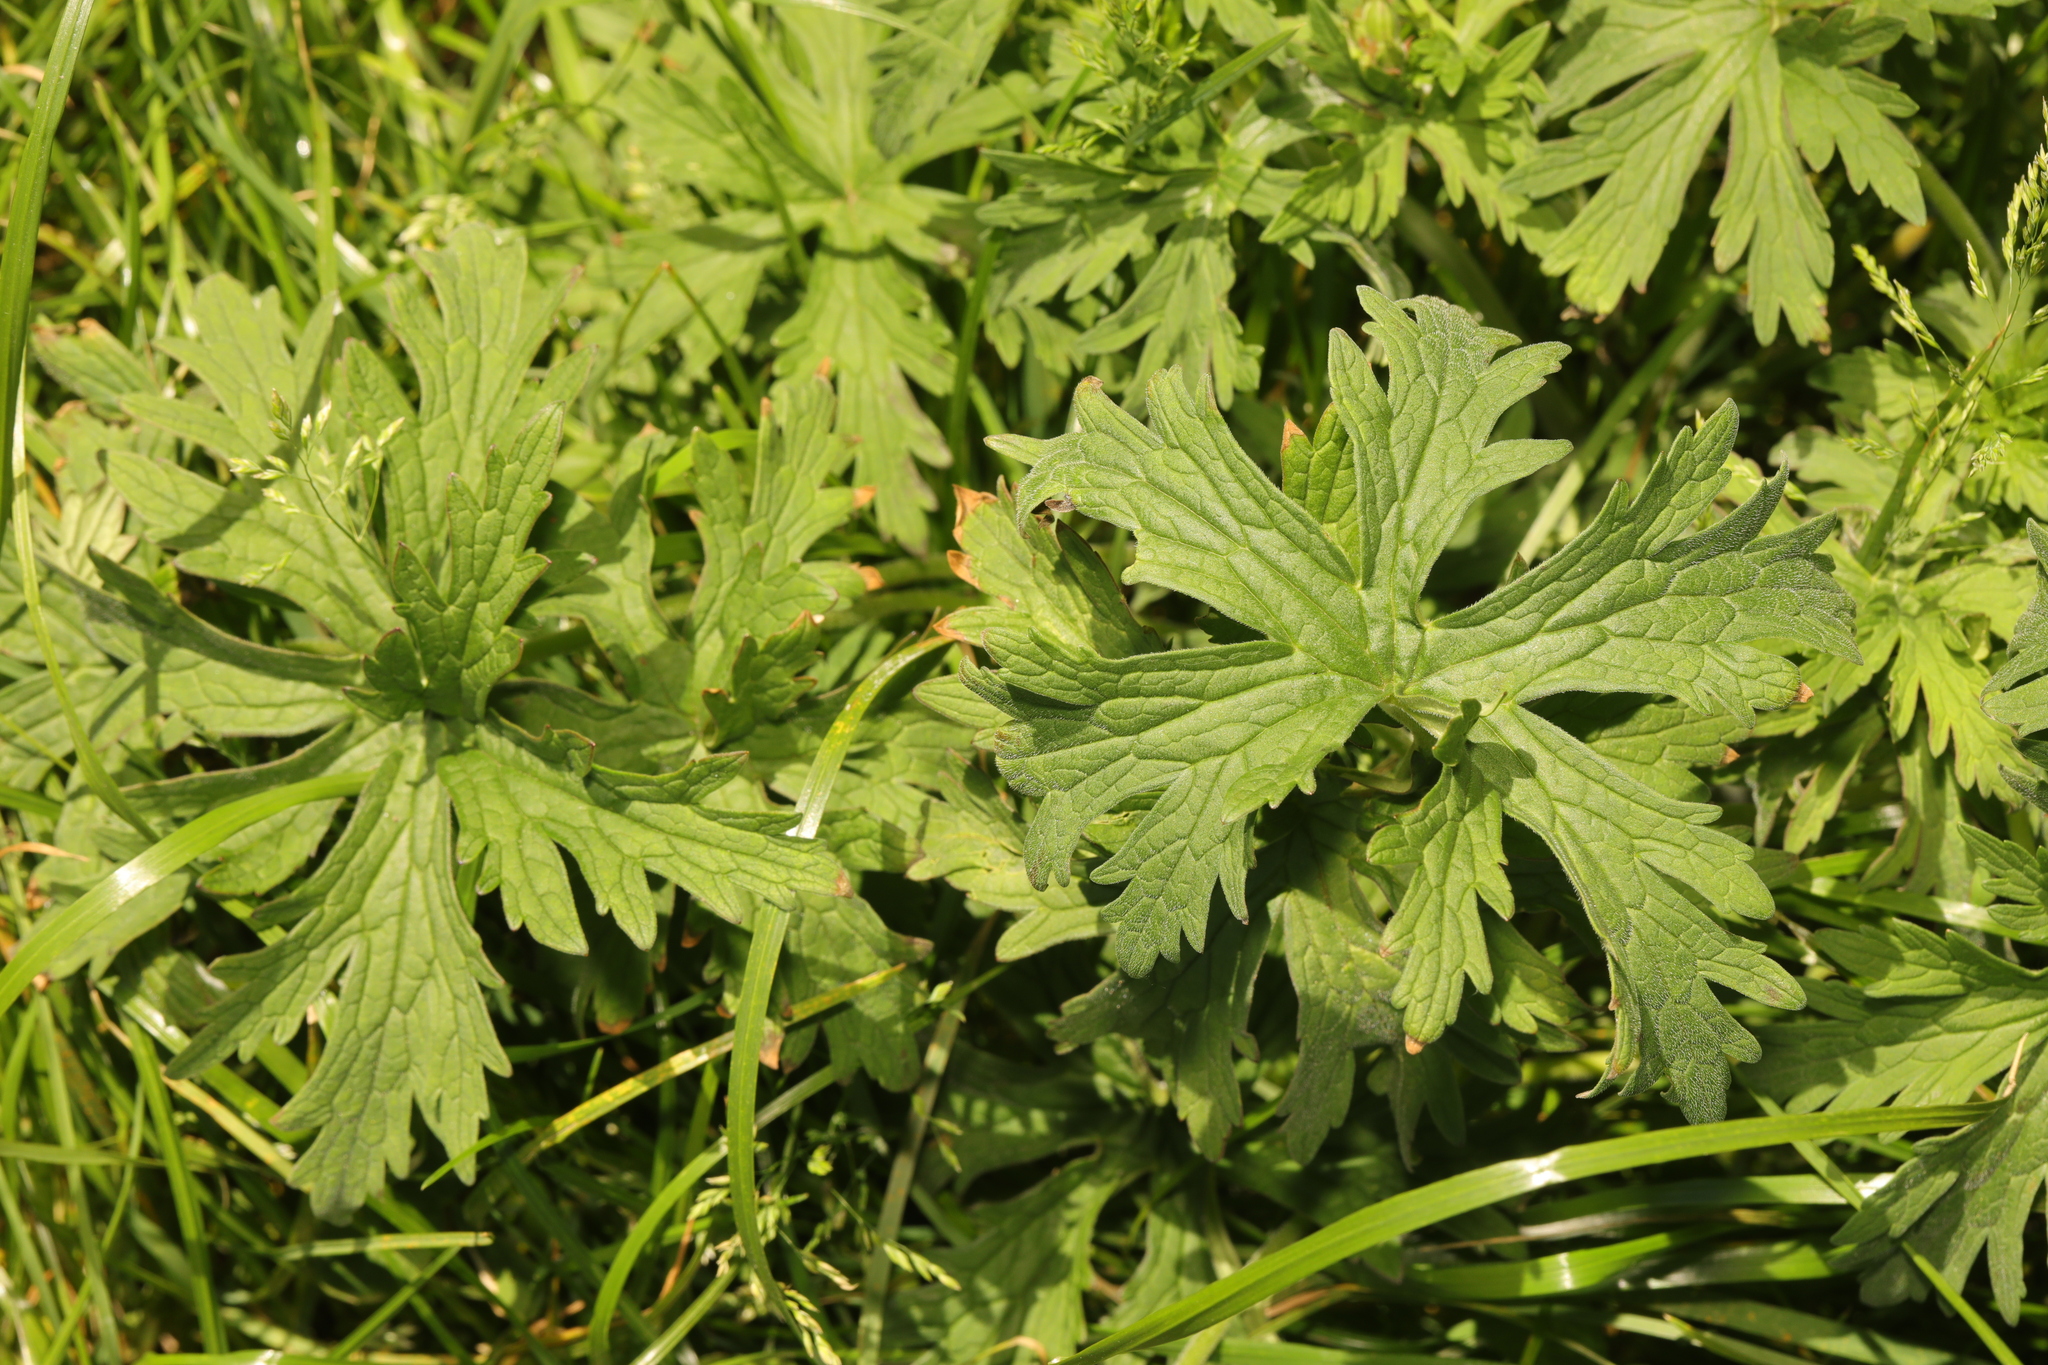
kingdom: Plantae
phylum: Tracheophyta
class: Magnoliopsida
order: Geraniales
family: Geraniaceae
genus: Geranium
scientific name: Geranium pratense
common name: Meadow crane's-bill
